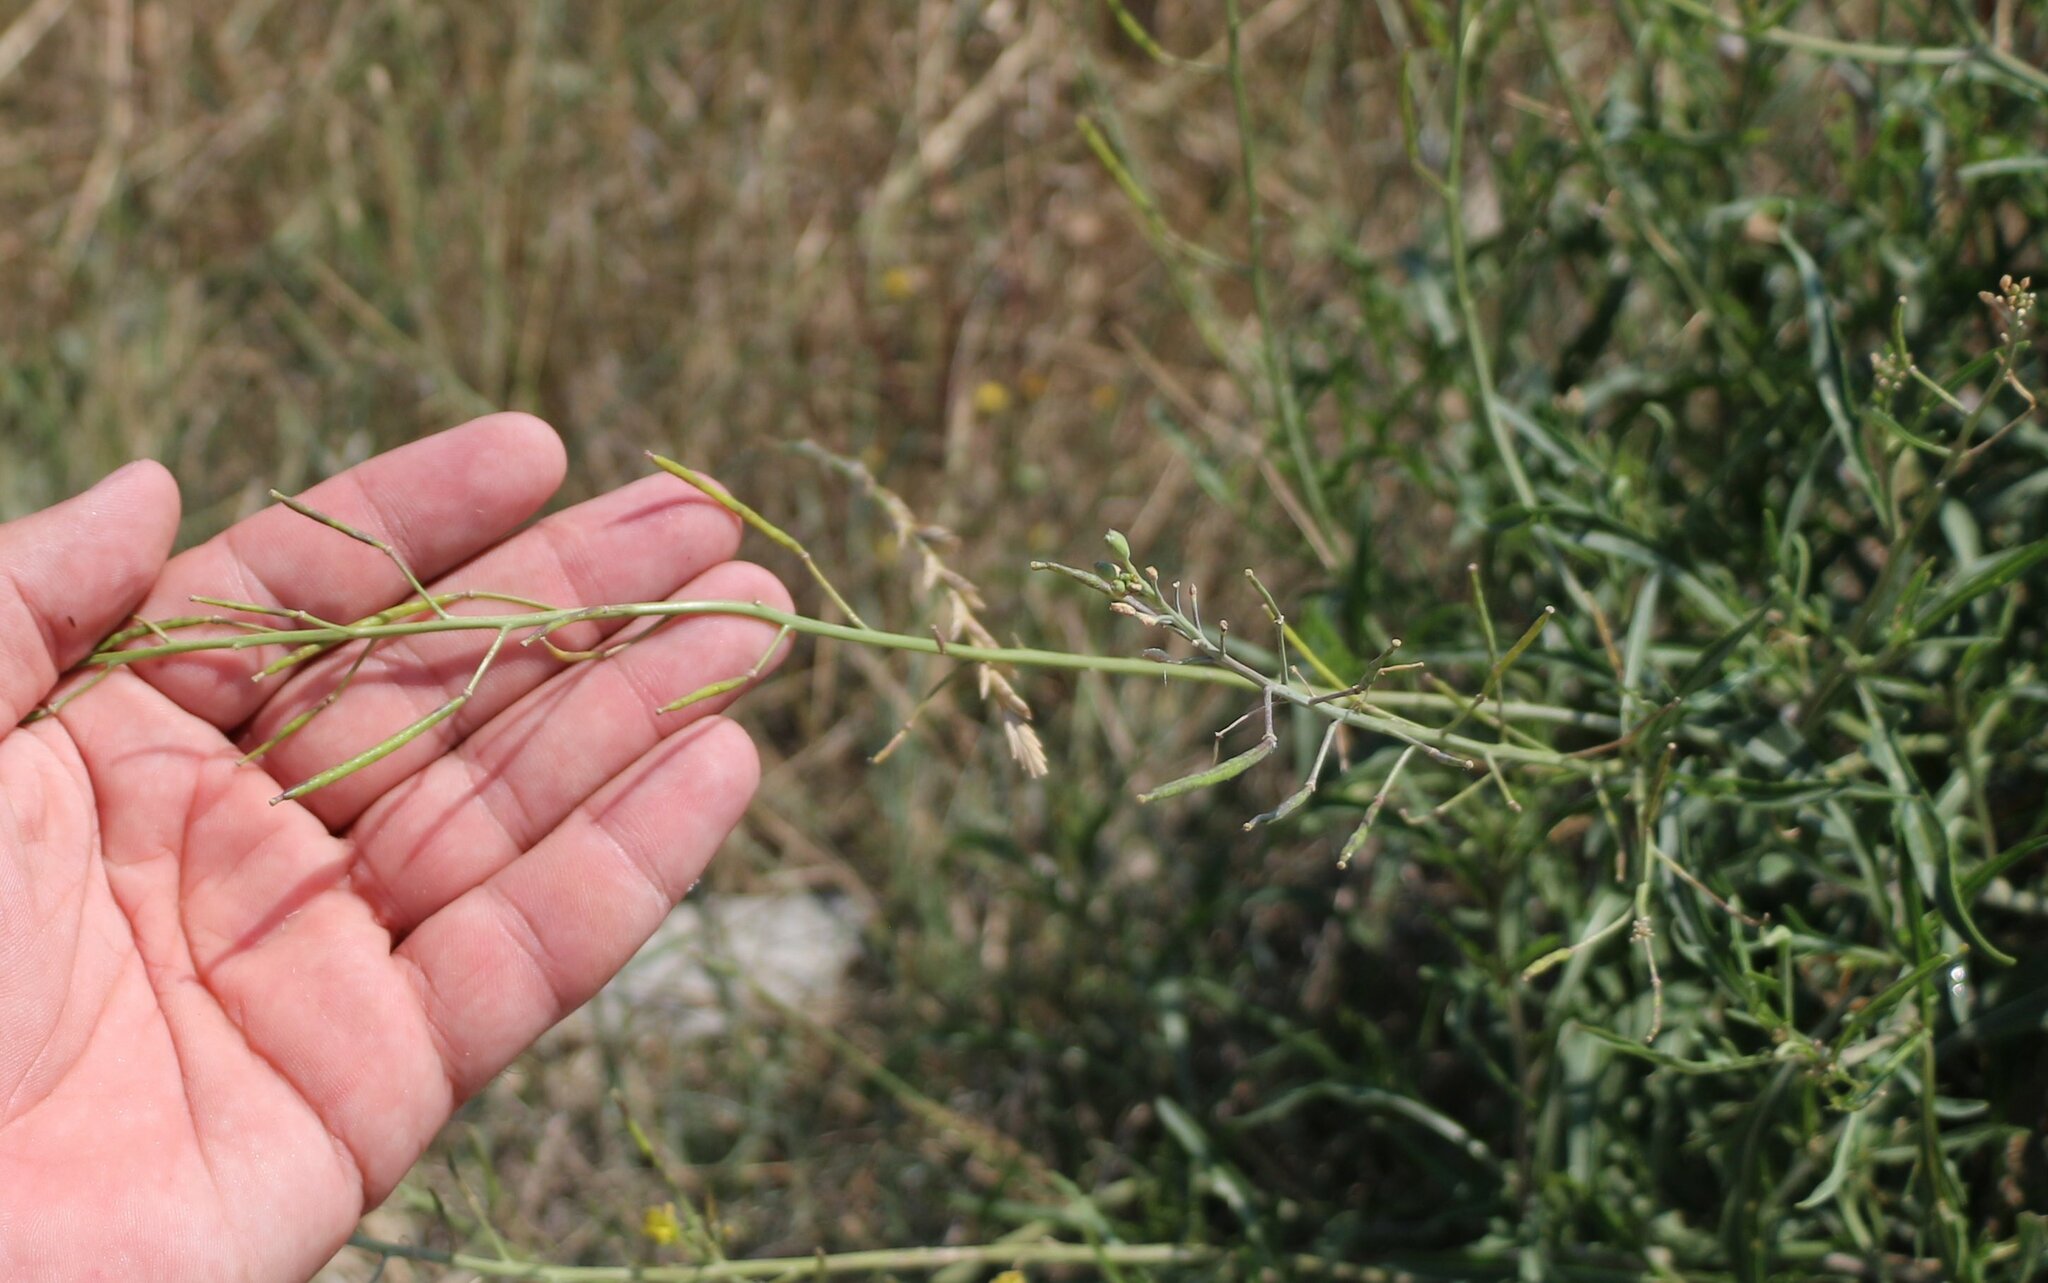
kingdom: Plantae
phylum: Tracheophyta
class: Magnoliopsida
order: Brassicales
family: Brassicaceae
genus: Diplotaxis
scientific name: Diplotaxis tenuifolia
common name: Perennial wall-rocket
